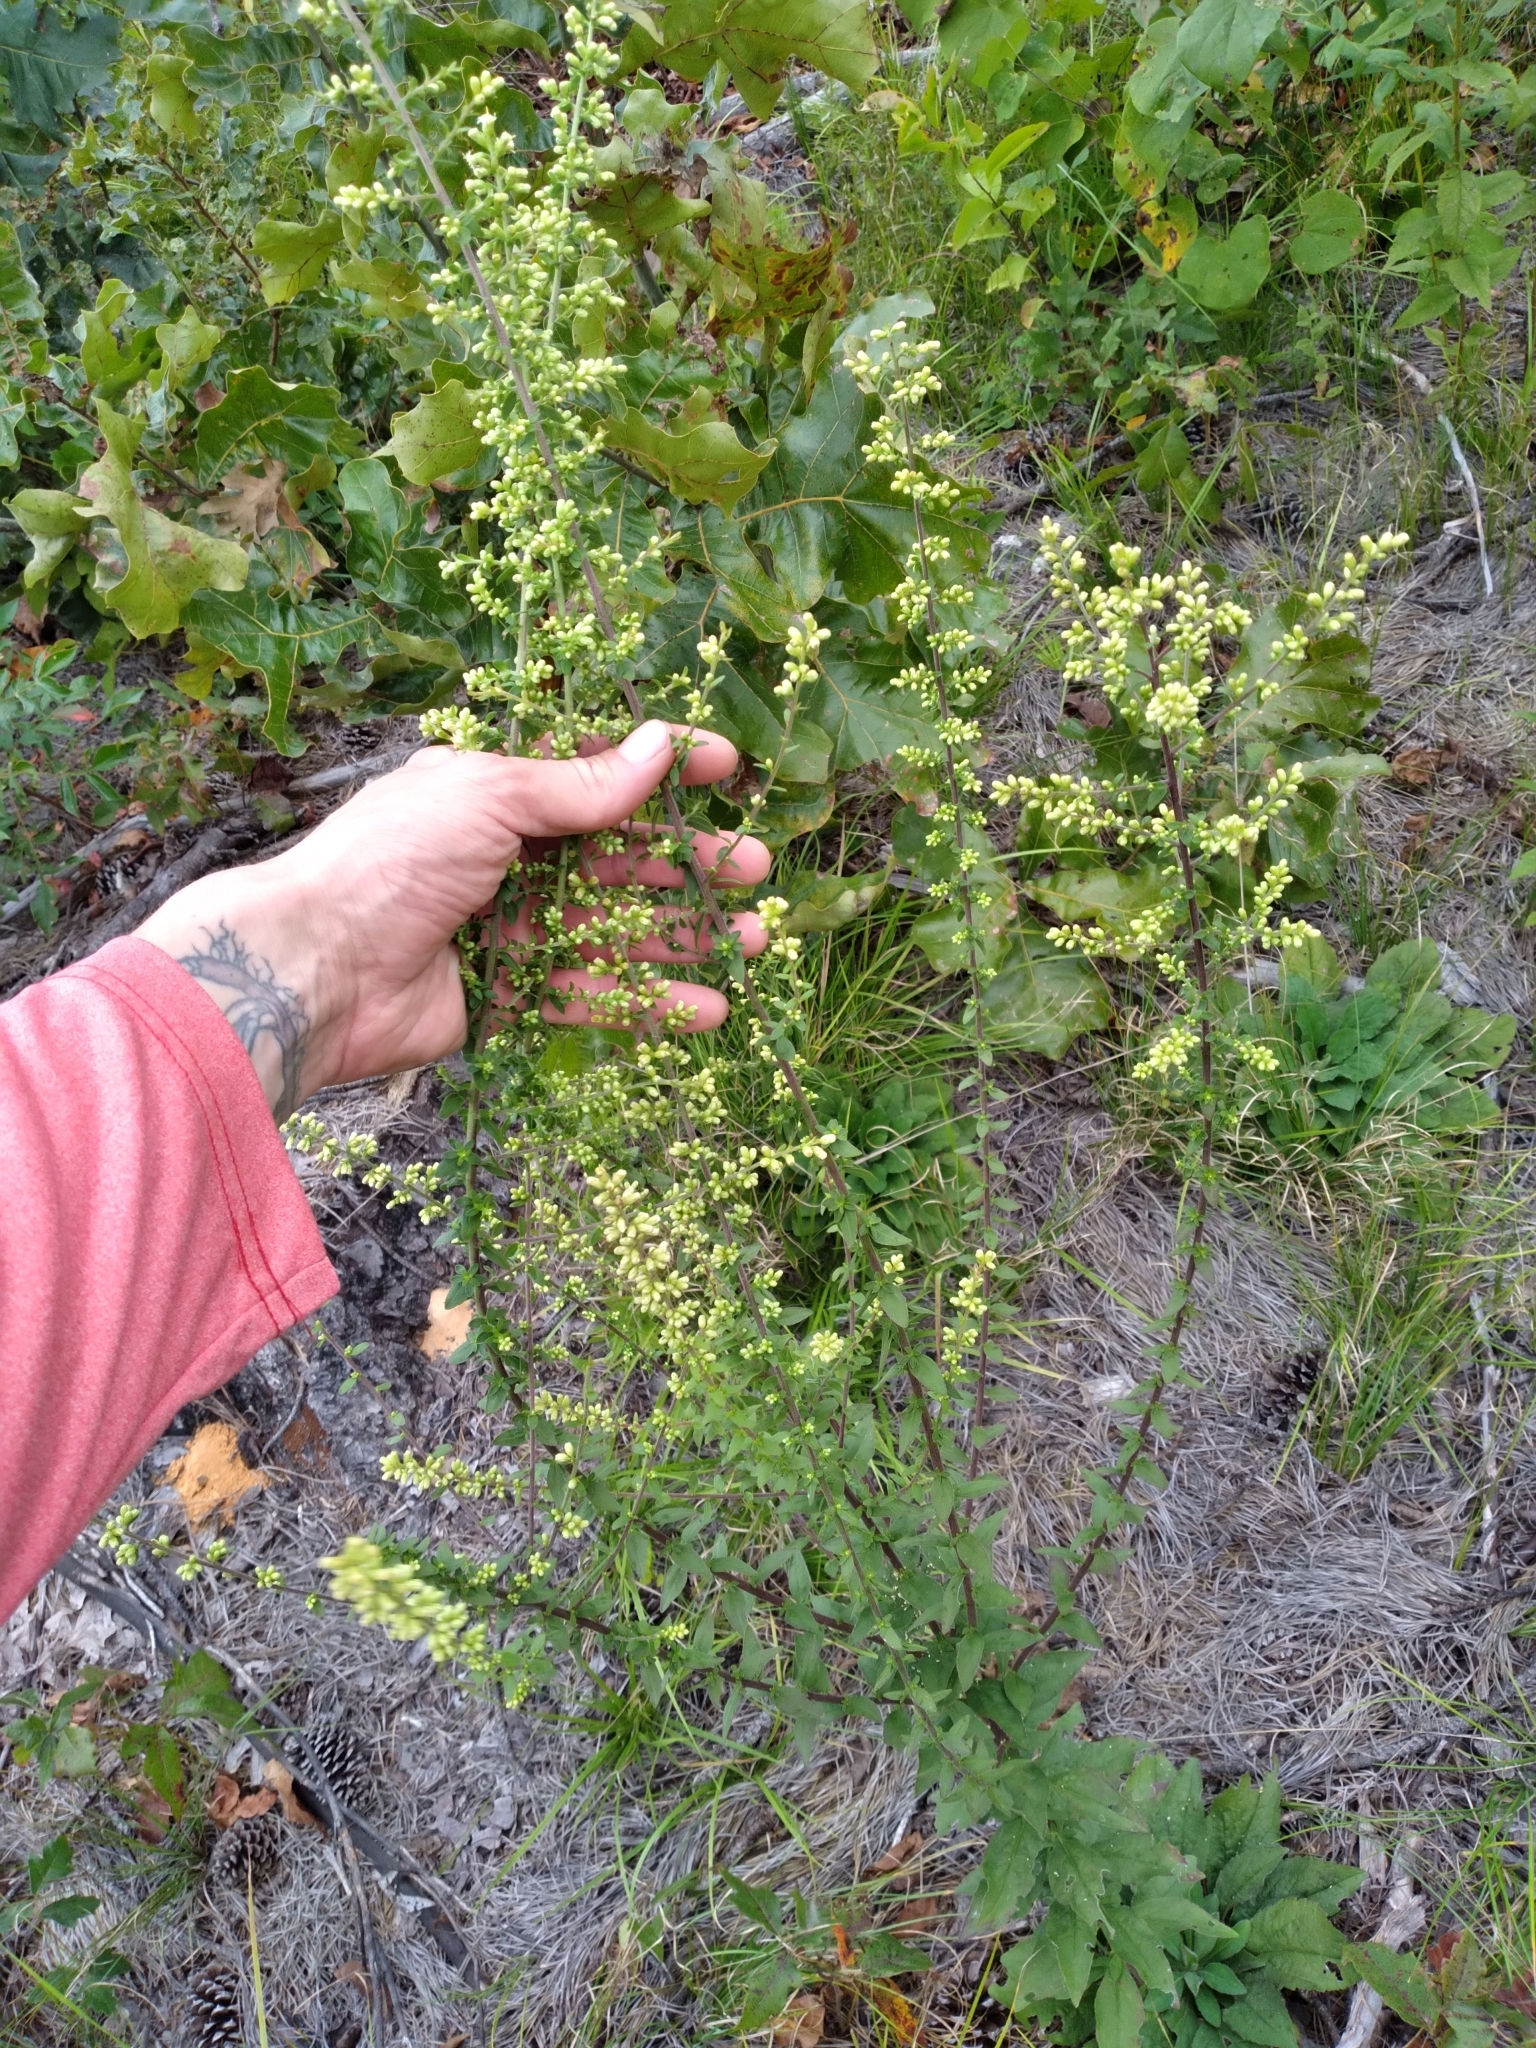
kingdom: Plantae
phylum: Tracheophyta
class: Magnoliopsida
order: Asterales
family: Asteraceae
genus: Solidago
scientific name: Solidago bicolor
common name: Silverrod
